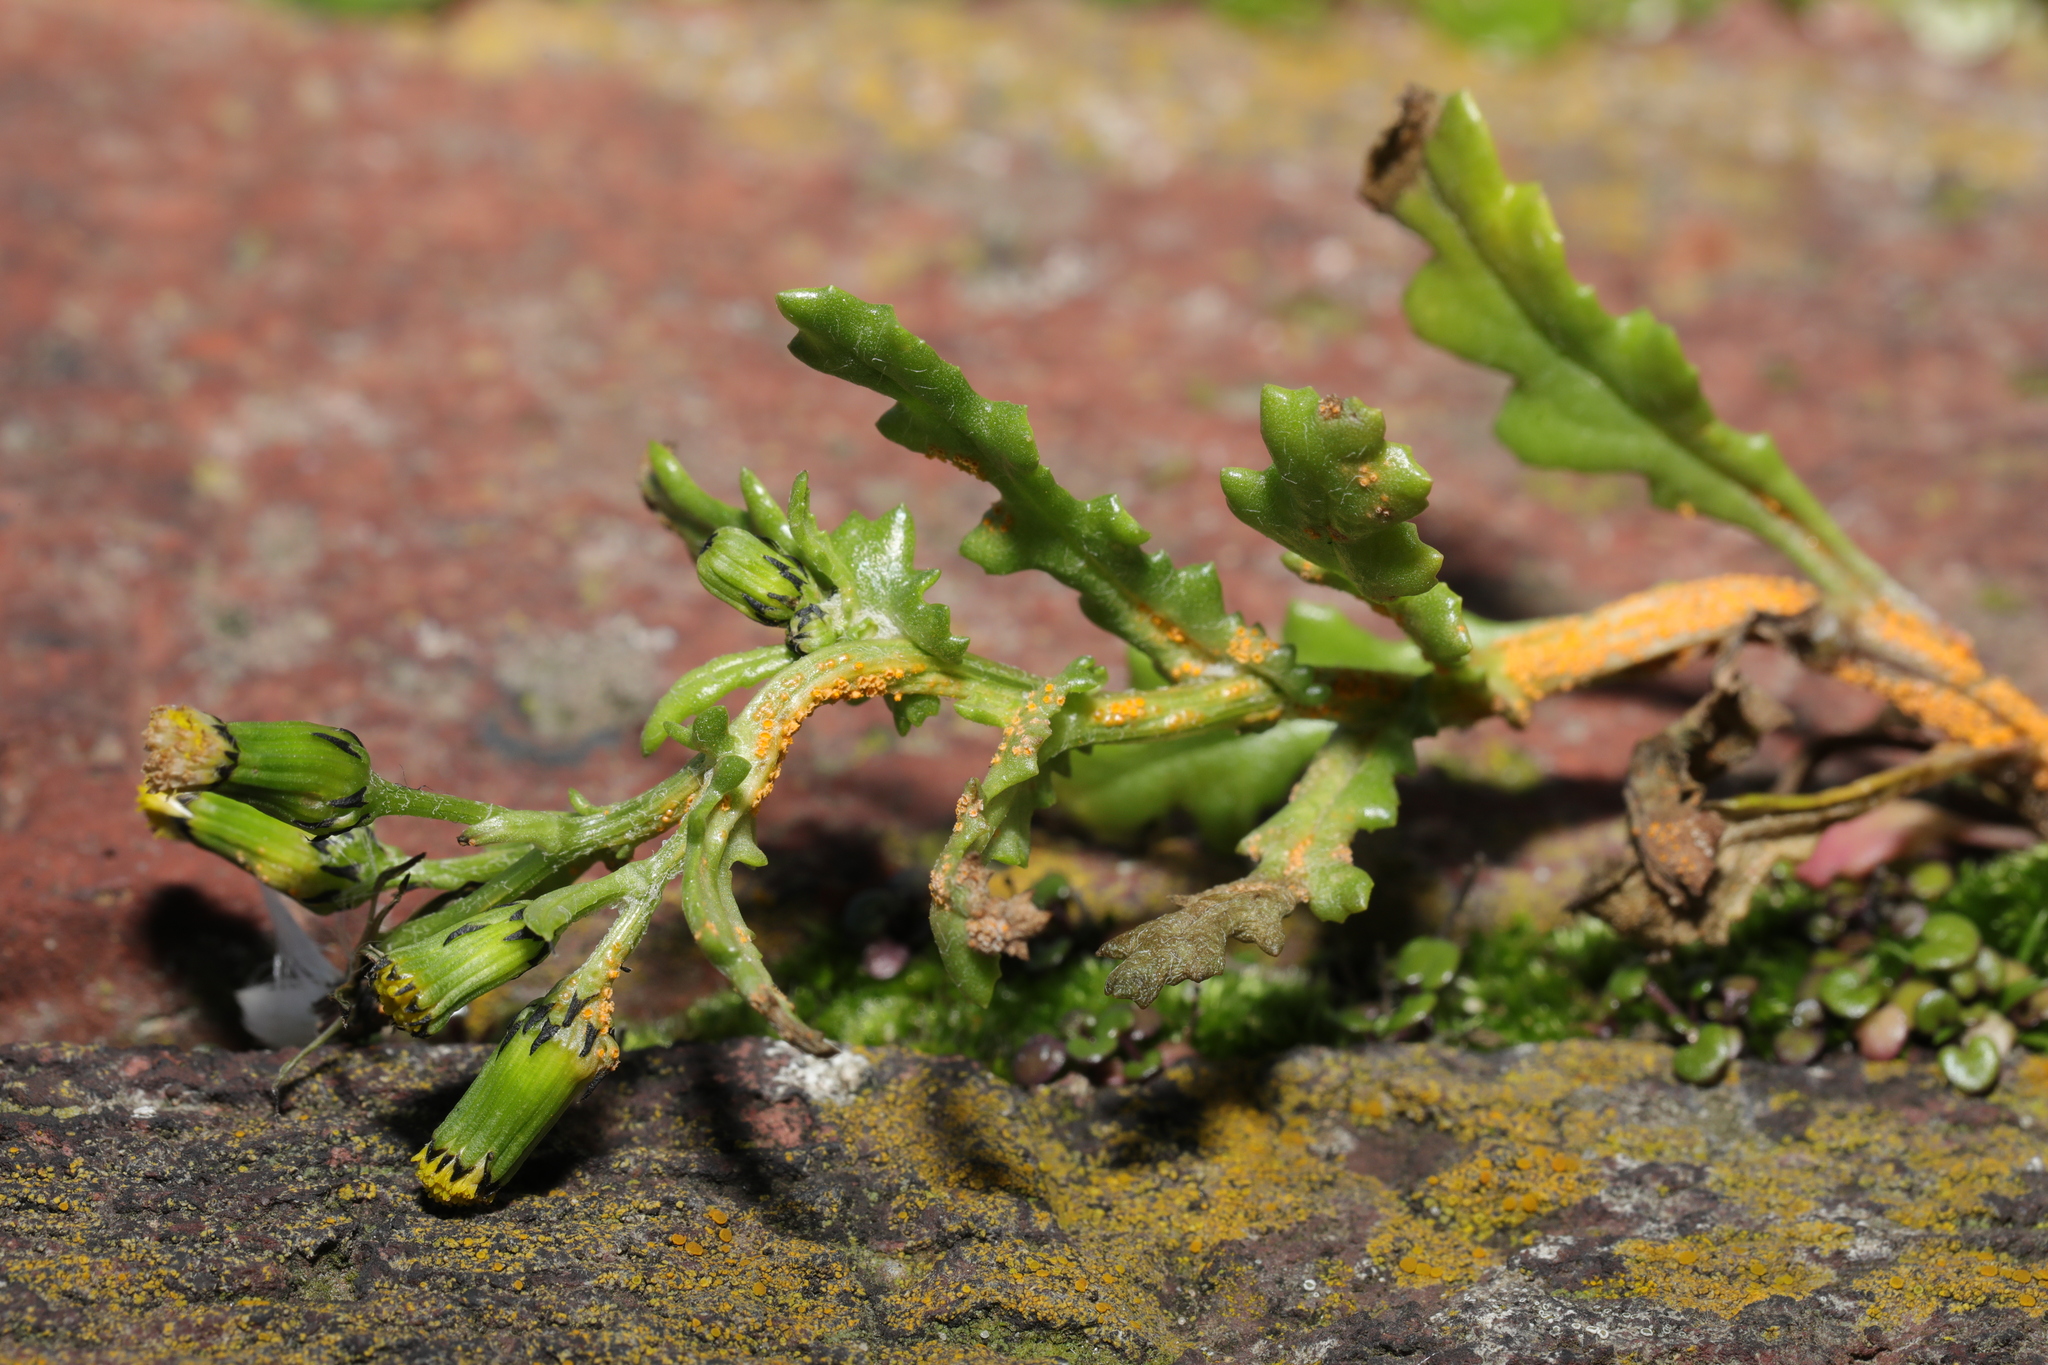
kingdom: Plantae
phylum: Tracheophyta
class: Magnoliopsida
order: Asterales
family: Asteraceae
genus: Senecio
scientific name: Senecio vulgaris
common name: Old-man-in-the-spring
